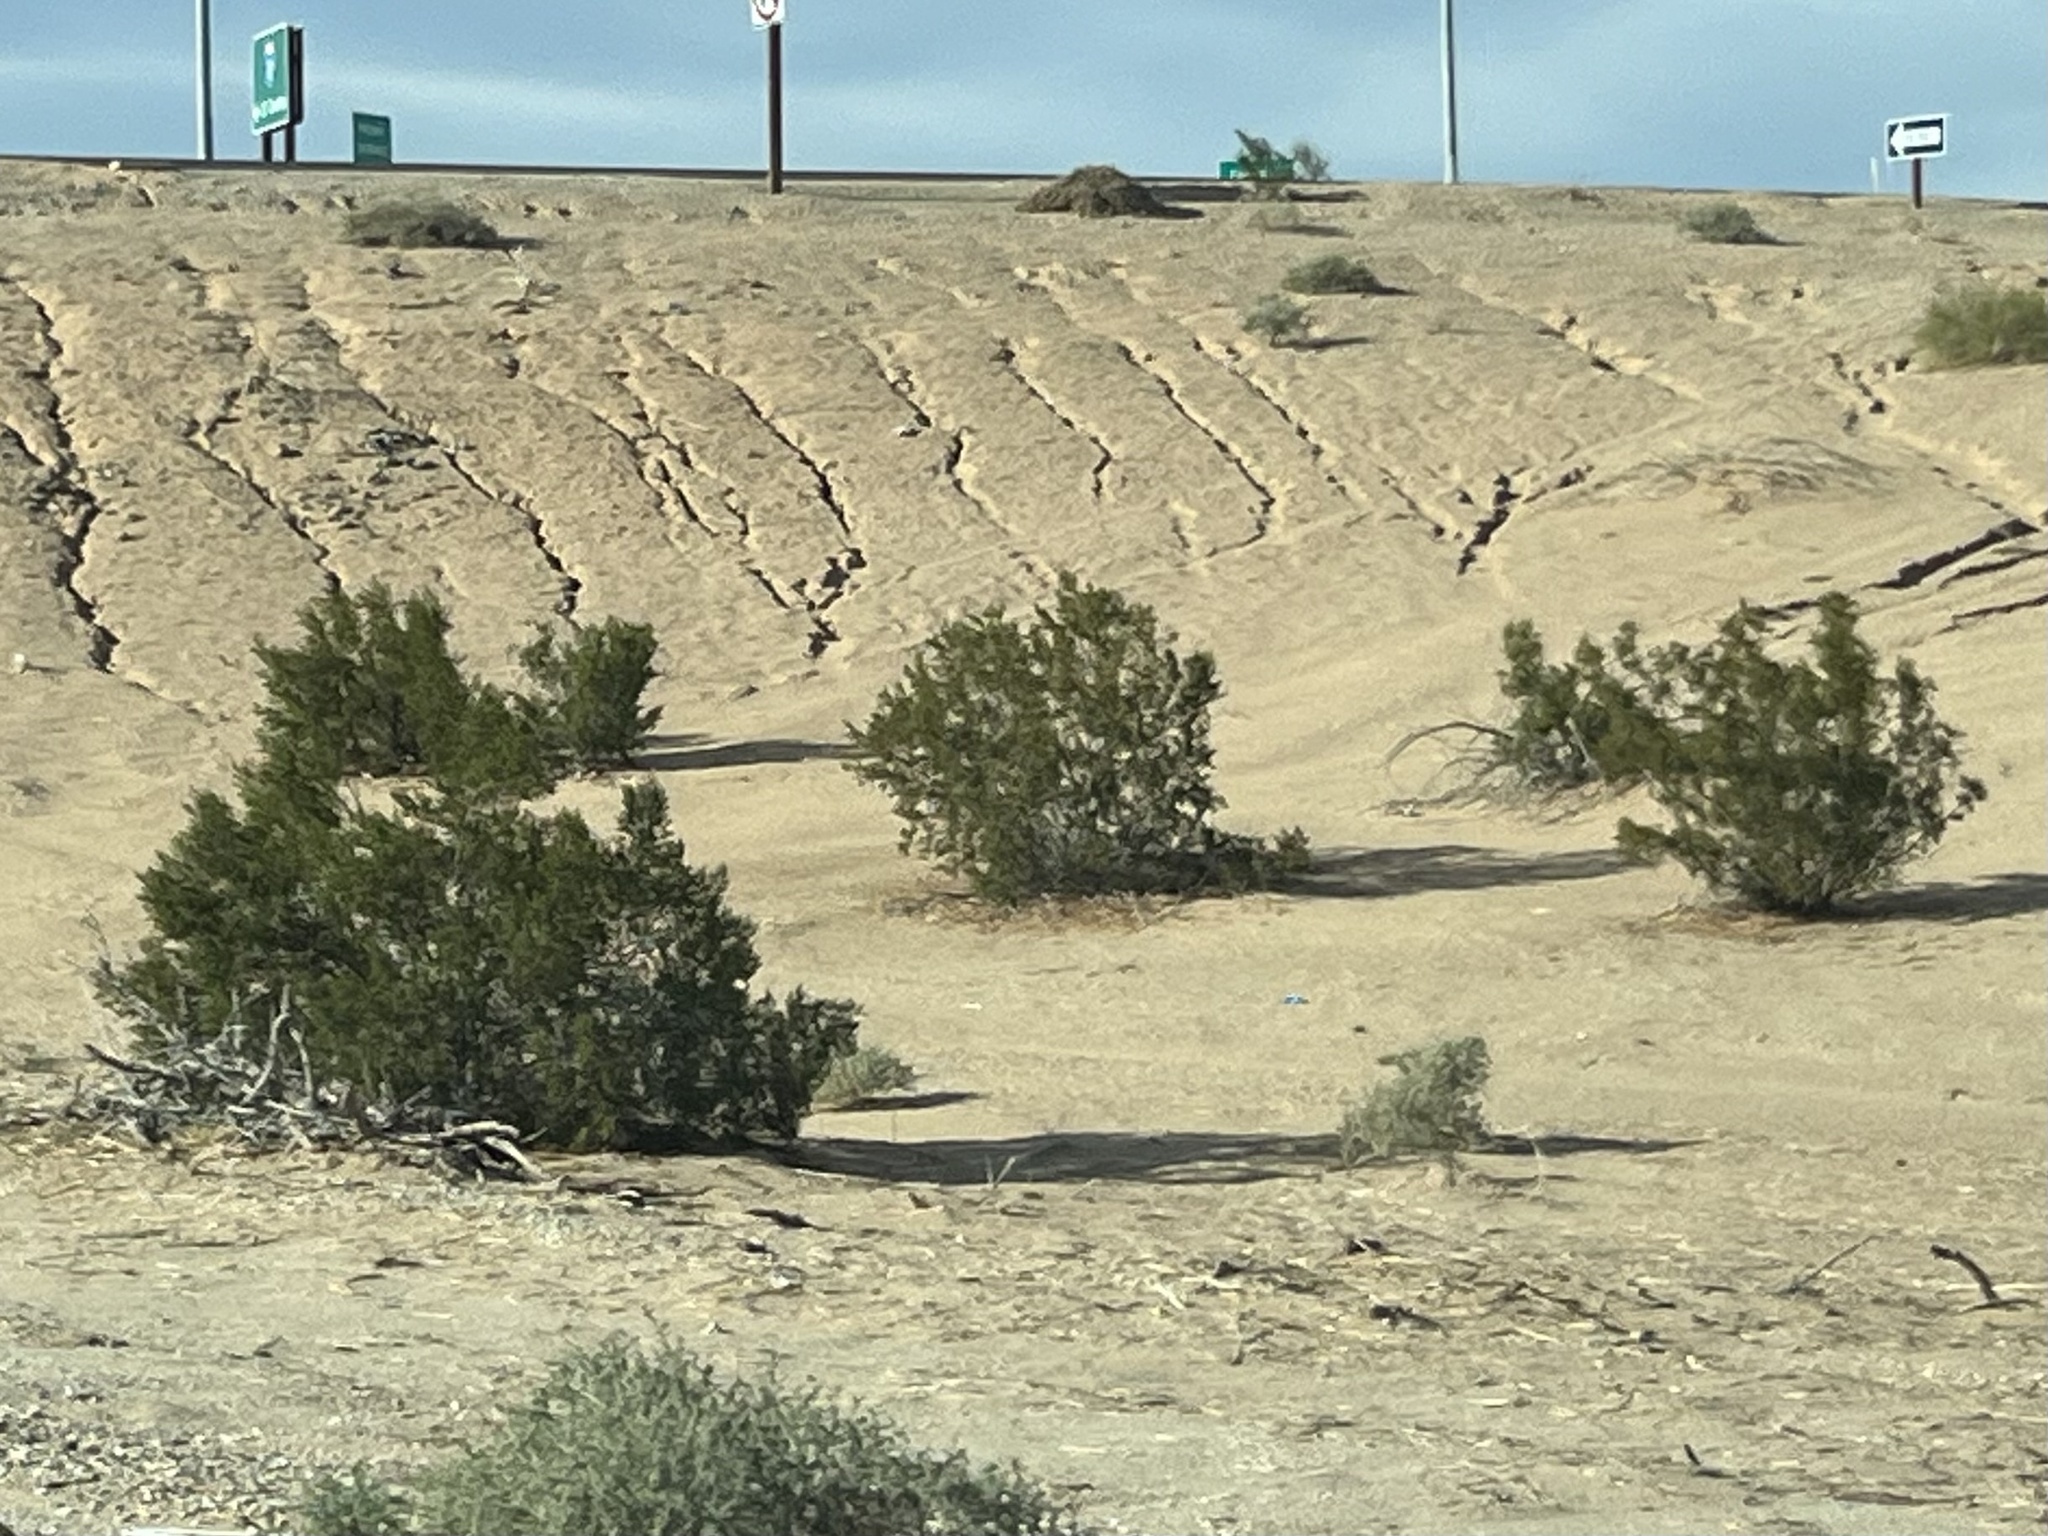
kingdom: Plantae
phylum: Tracheophyta
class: Magnoliopsida
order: Zygophyllales
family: Zygophyllaceae
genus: Larrea
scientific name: Larrea tridentata
